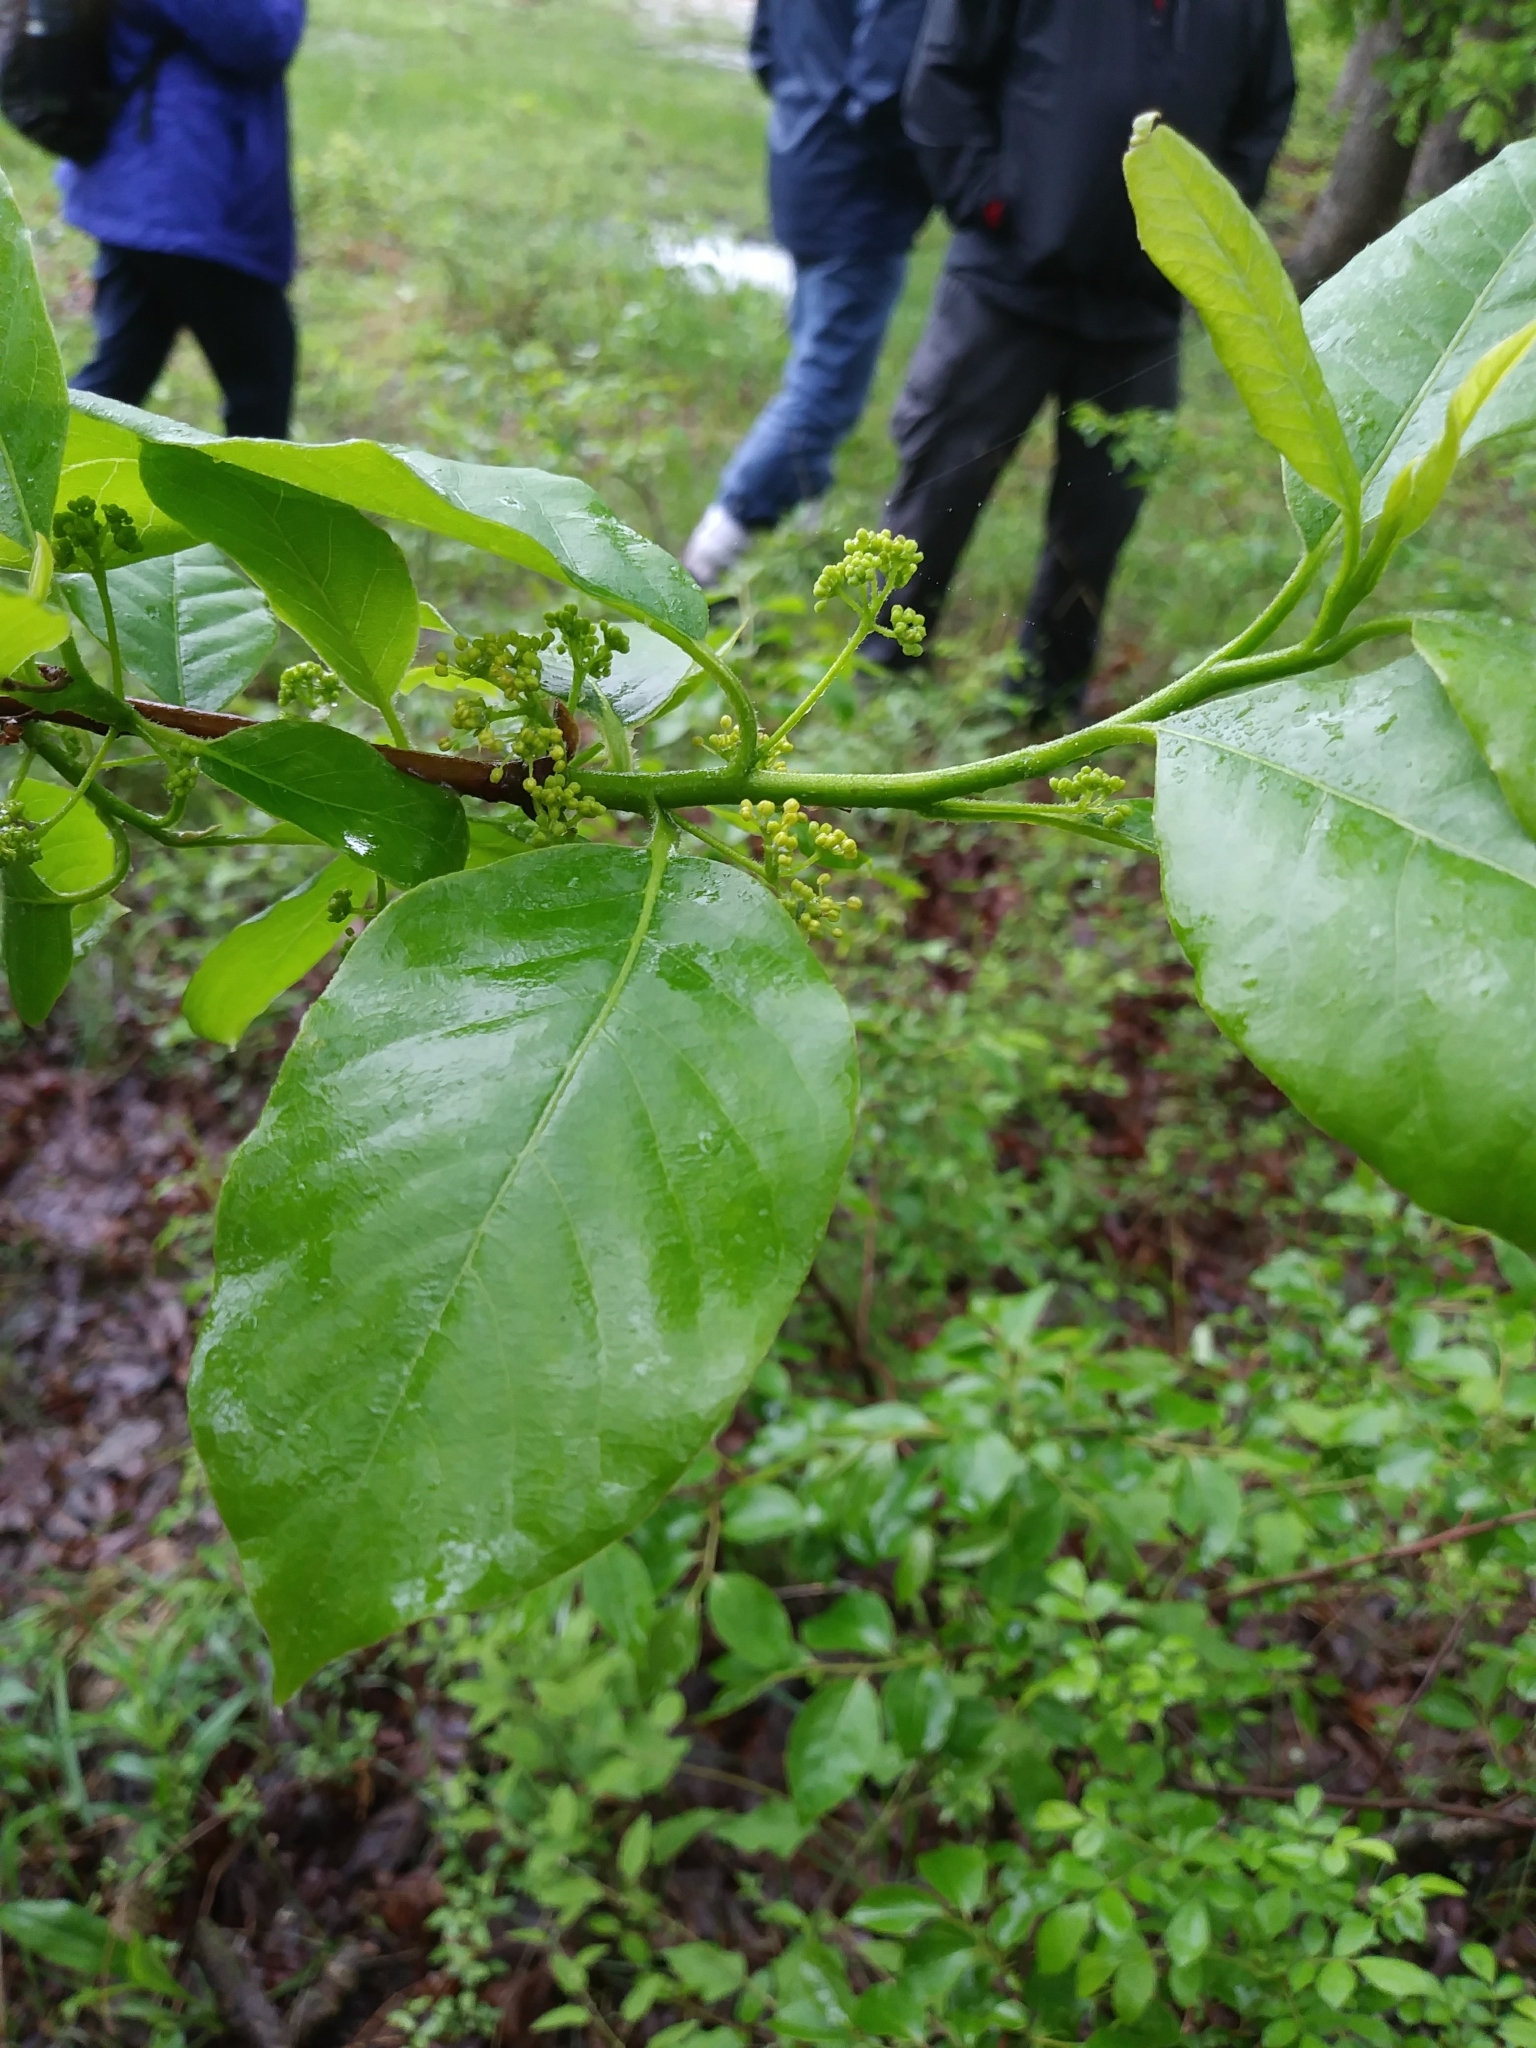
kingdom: Plantae
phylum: Tracheophyta
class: Magnoliopsida
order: Cornales
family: Nyssaceae
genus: Nyssa
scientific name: Nyssa sylvatica
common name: Black tupelo
